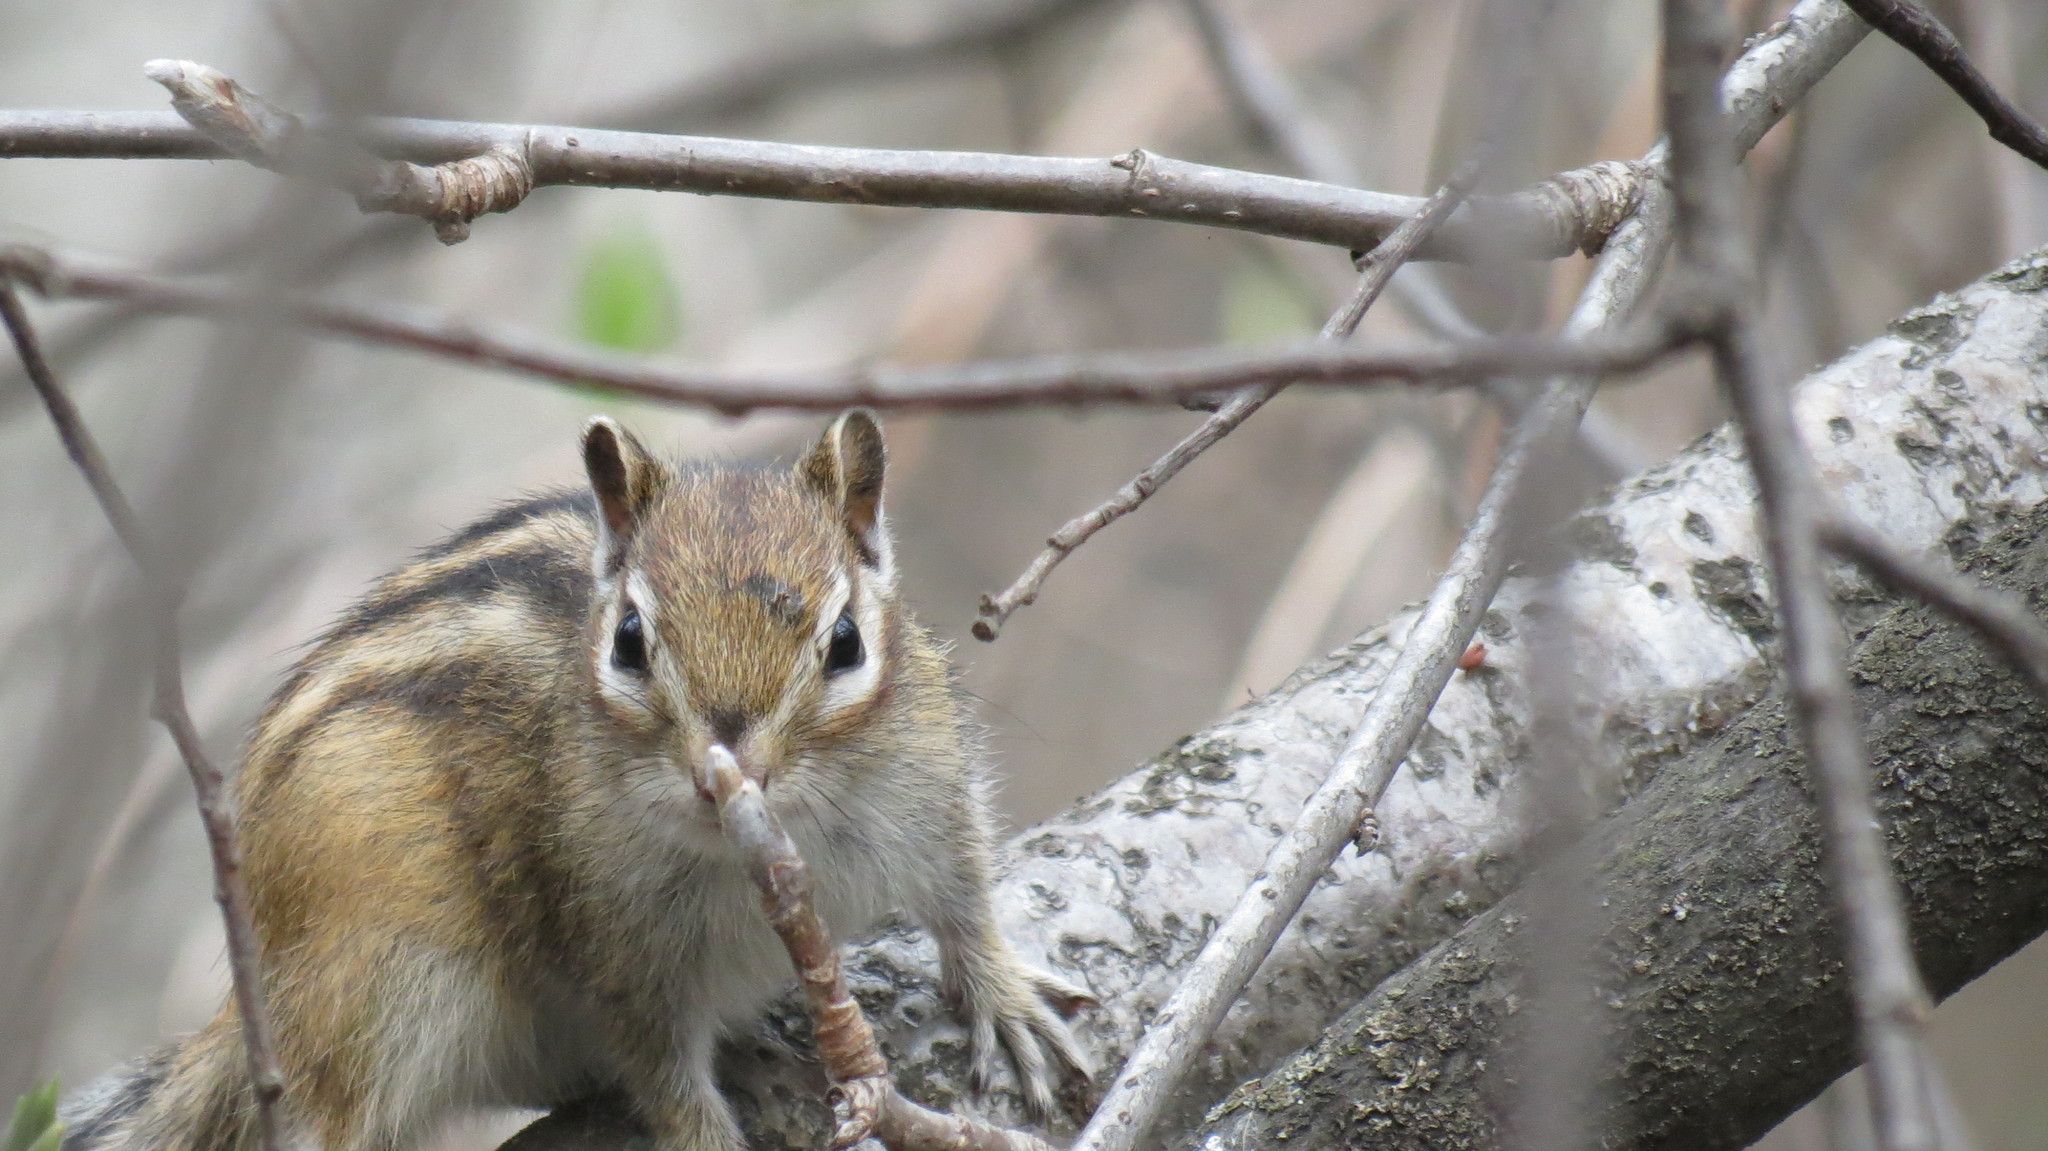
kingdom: Animalia
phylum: Chordata
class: Mammalia
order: Rodentia
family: Sciuridae
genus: Tamias
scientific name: Tamias sibiricus
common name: Siberian chipmunk
